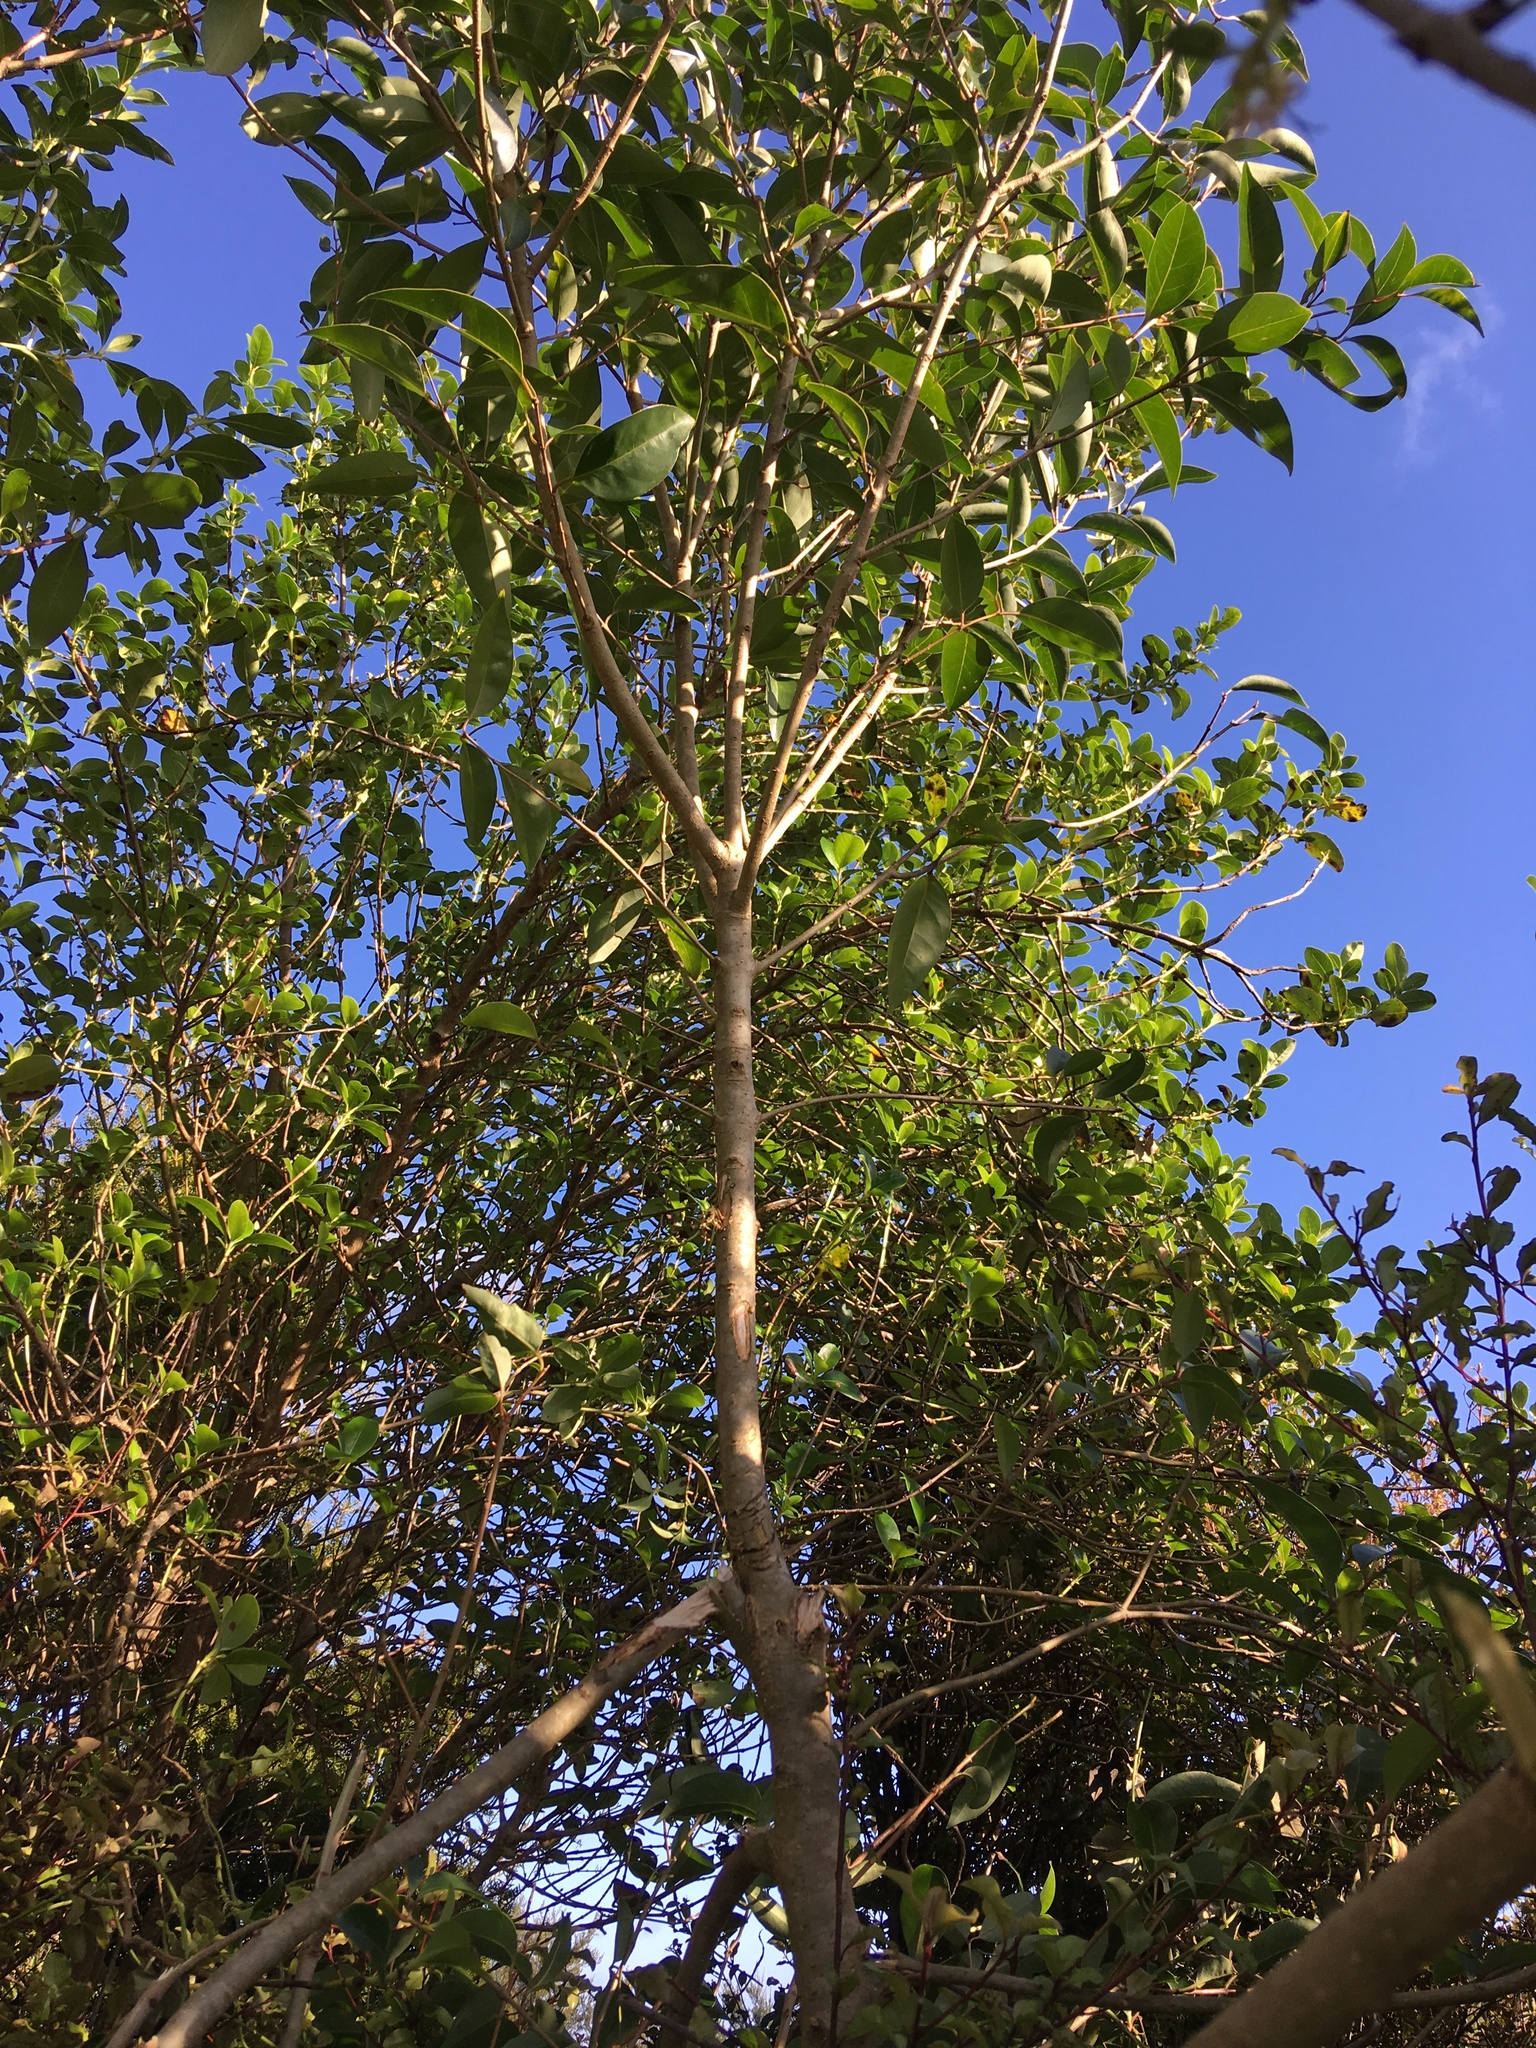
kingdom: Plantae
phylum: Tracheophyta
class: Magnoliopsida
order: Lamiales
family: Oleaceae
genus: Ligustrum
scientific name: Ligustrum lucidum
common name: Glossy privet
